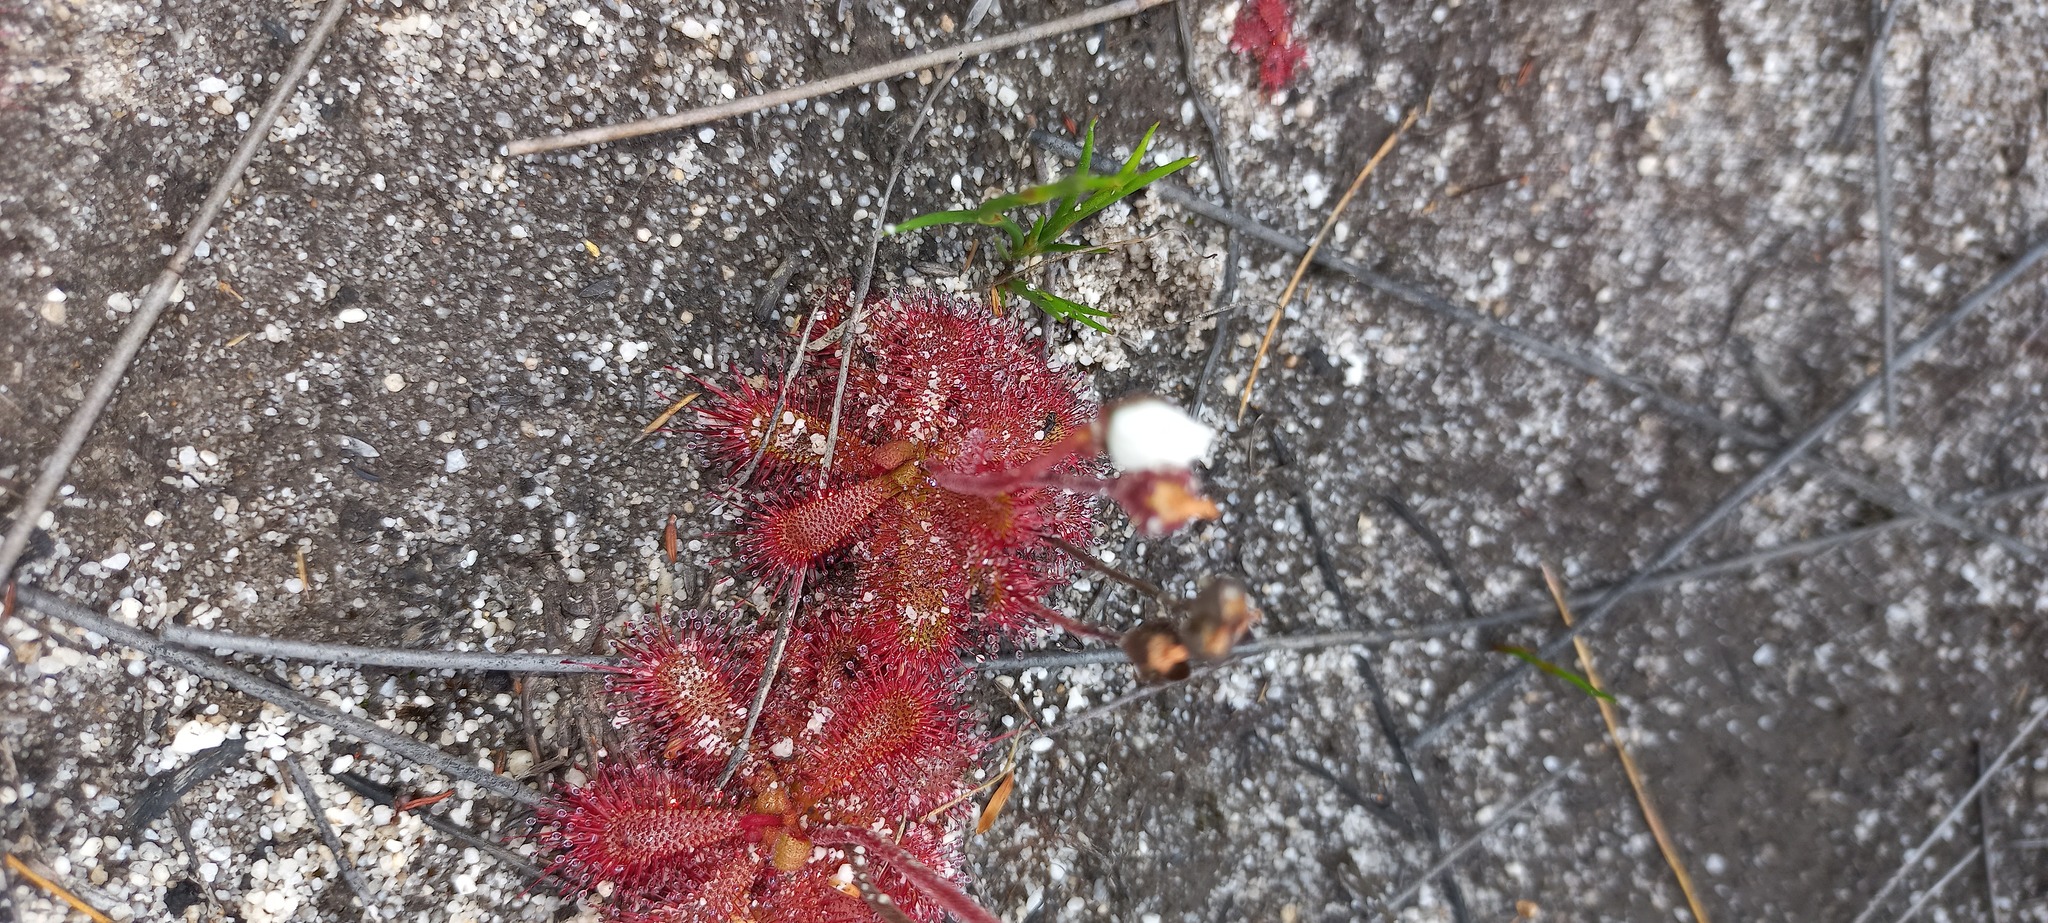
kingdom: Plantae
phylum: Tracheophyta
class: Magnoliopsida
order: Caryophyllales
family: Droseraceae
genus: Drosera
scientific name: Drosera trinervia
